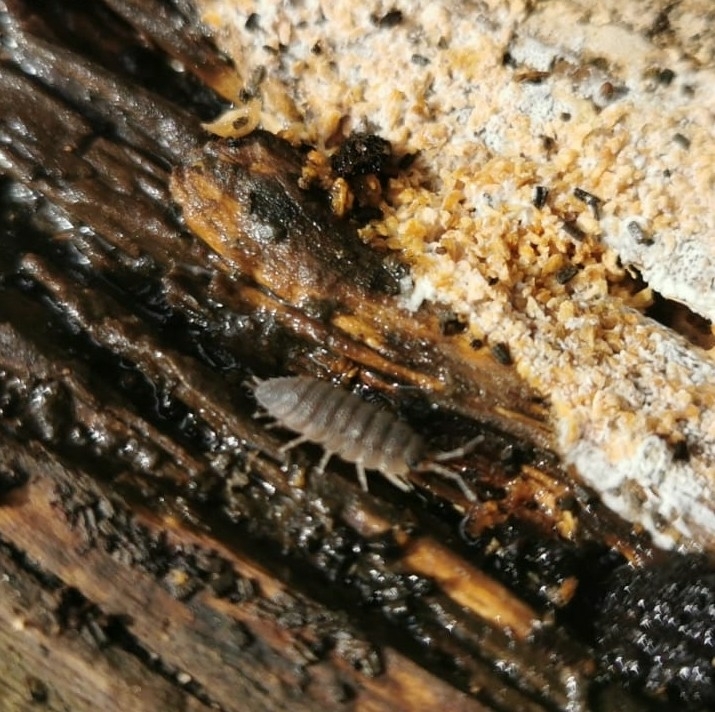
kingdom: Animalia
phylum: Arthropoda
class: Malacostraca
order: Isopoda
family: Porcellionidae
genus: Porcellio
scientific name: Porcellio scaber
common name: Common rough woodlouse
